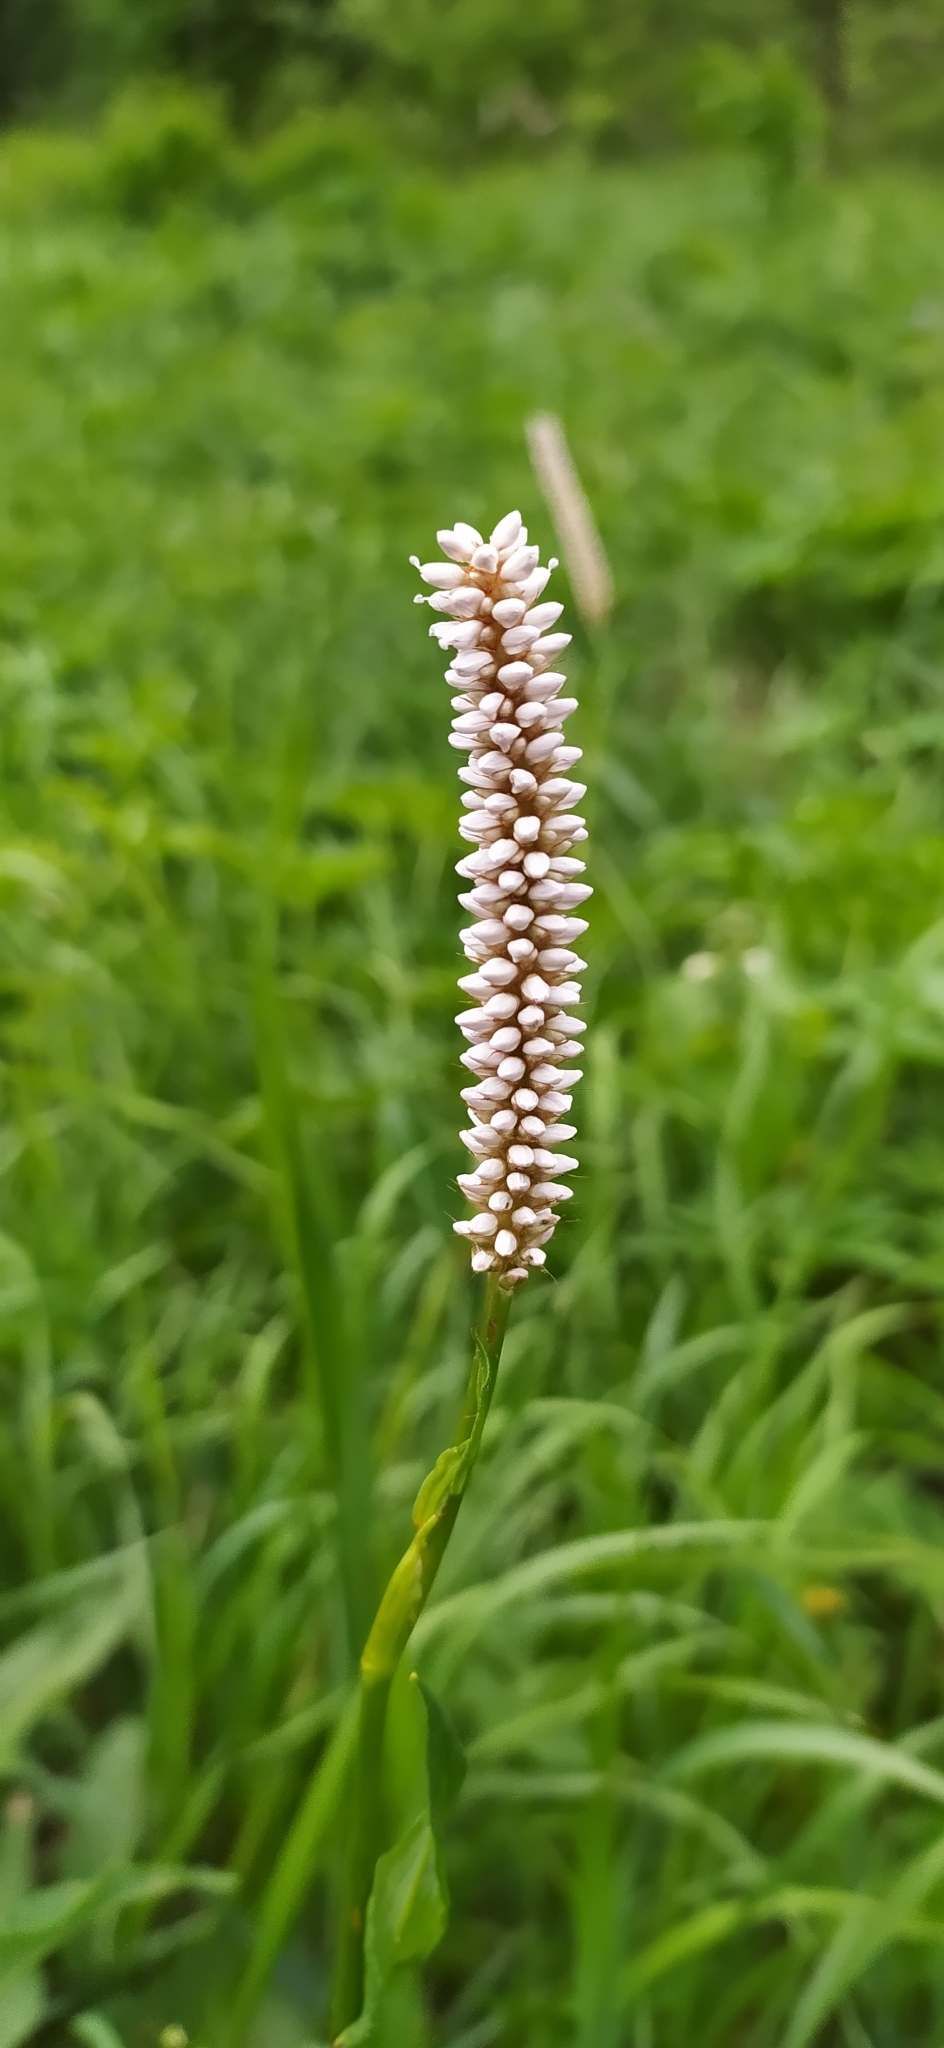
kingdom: Plantae
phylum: Tracheophyta
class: Magnoliopsida
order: Caryophyllales
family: Polygonaceae
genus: Bistorta
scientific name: Bistorta officinalis
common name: Common bistort
